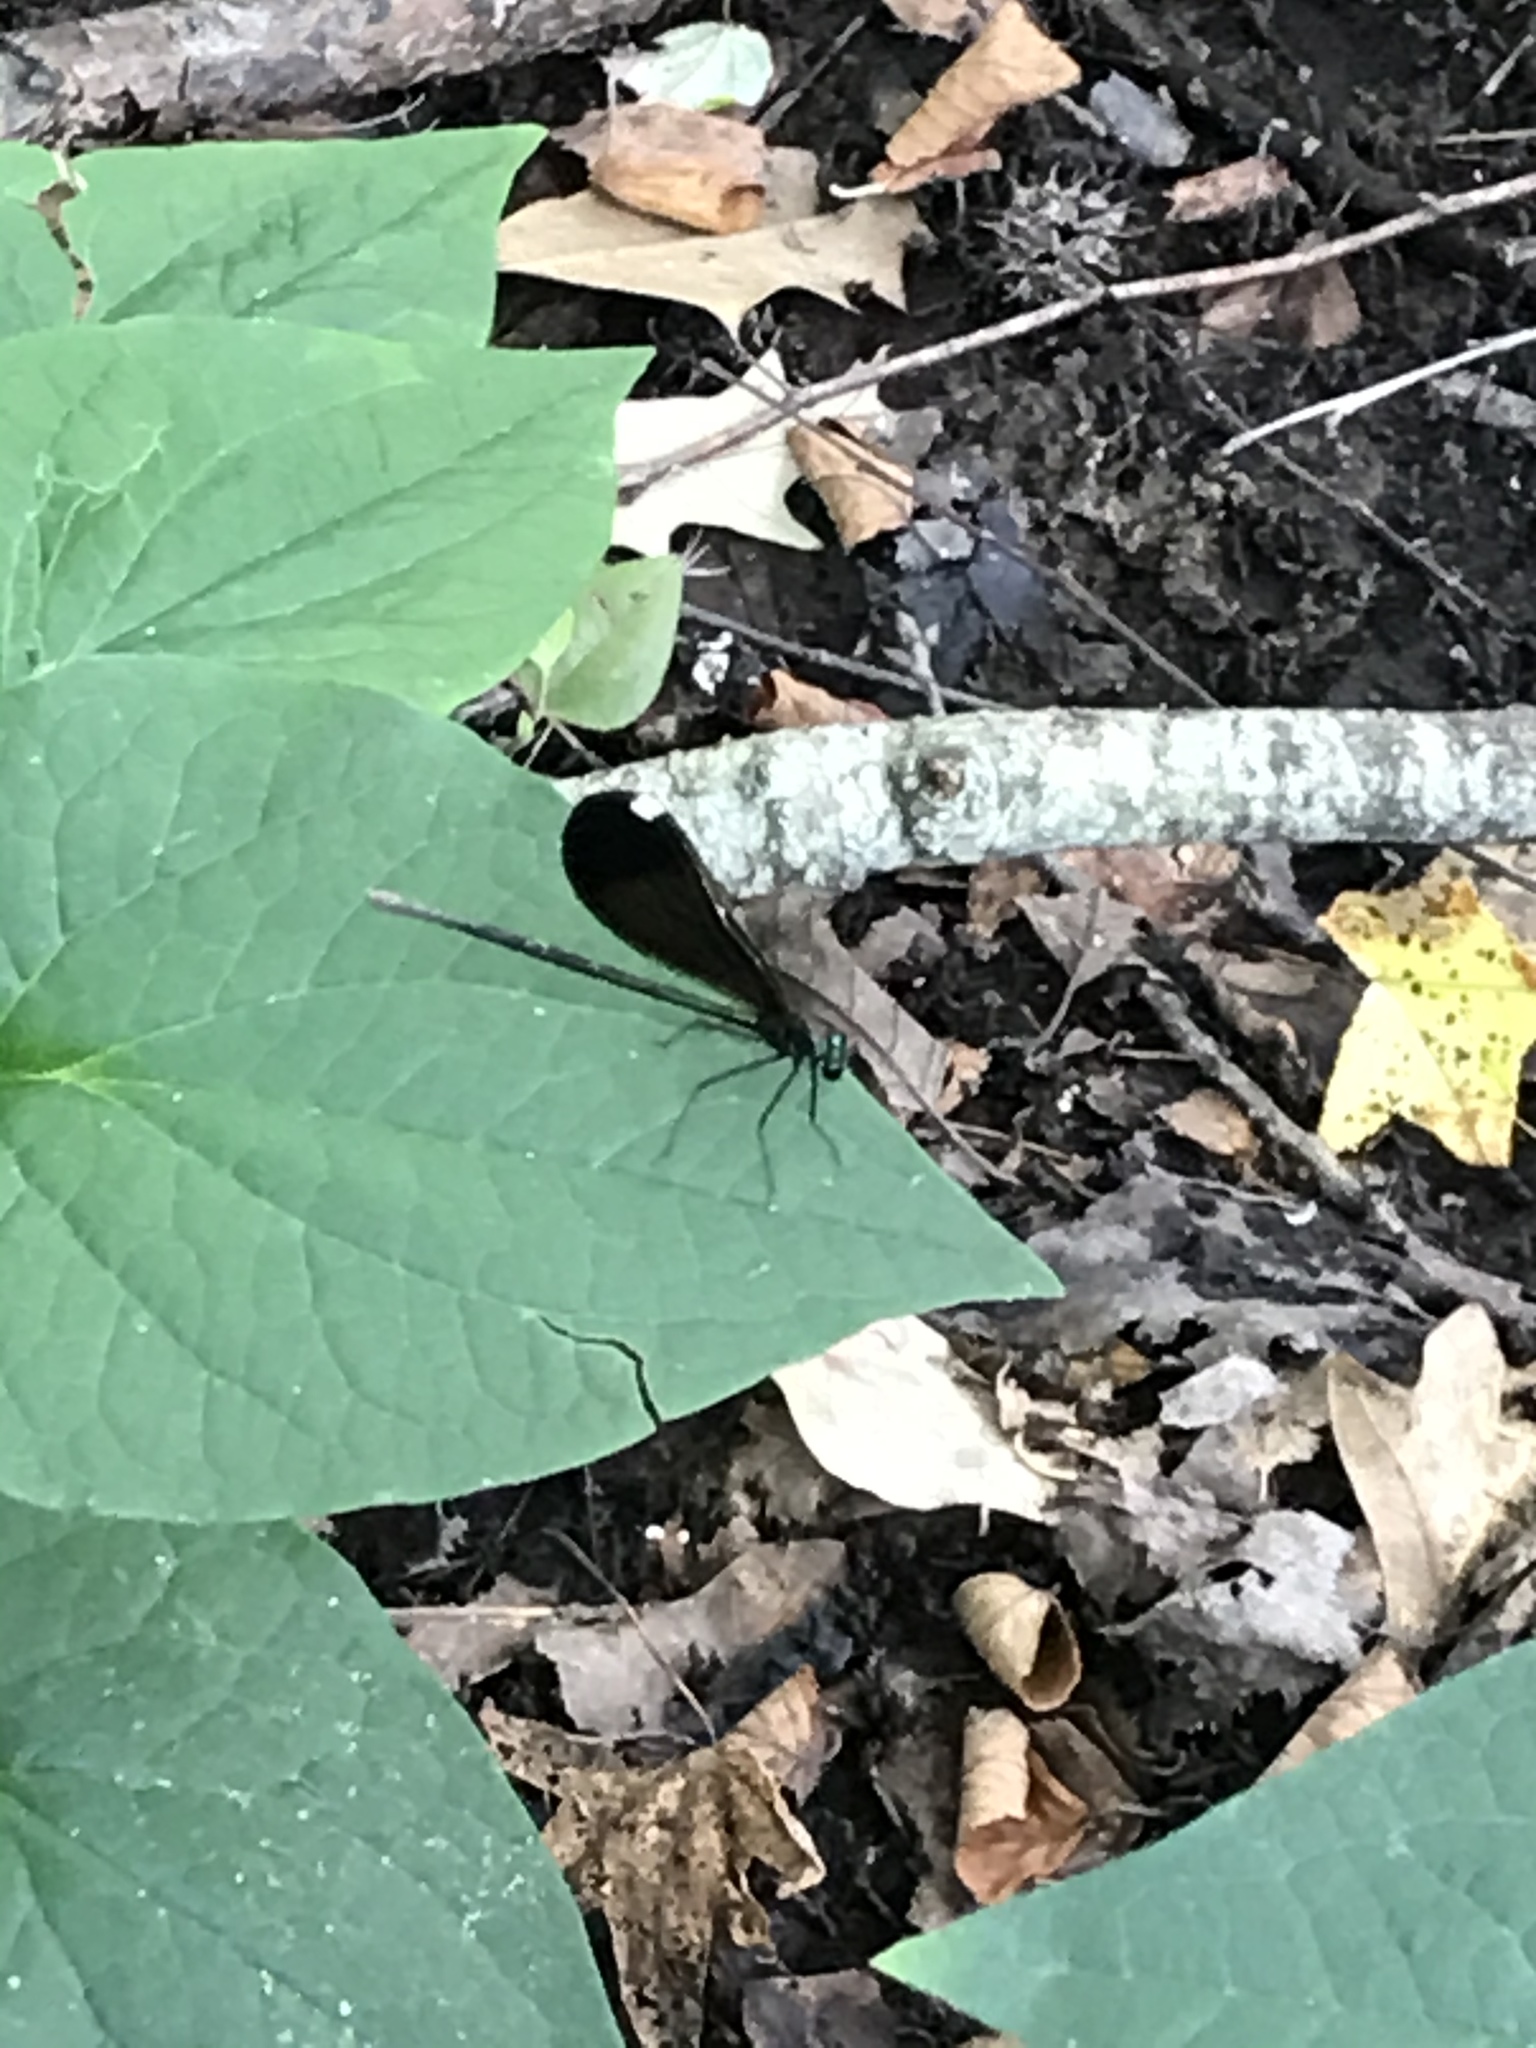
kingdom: Animalia
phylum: Arthropoda
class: Insecta
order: Odonata
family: Calopterygidae
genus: Calopteryx
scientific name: Calopteryx maculata
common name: Ebony jewelwing
